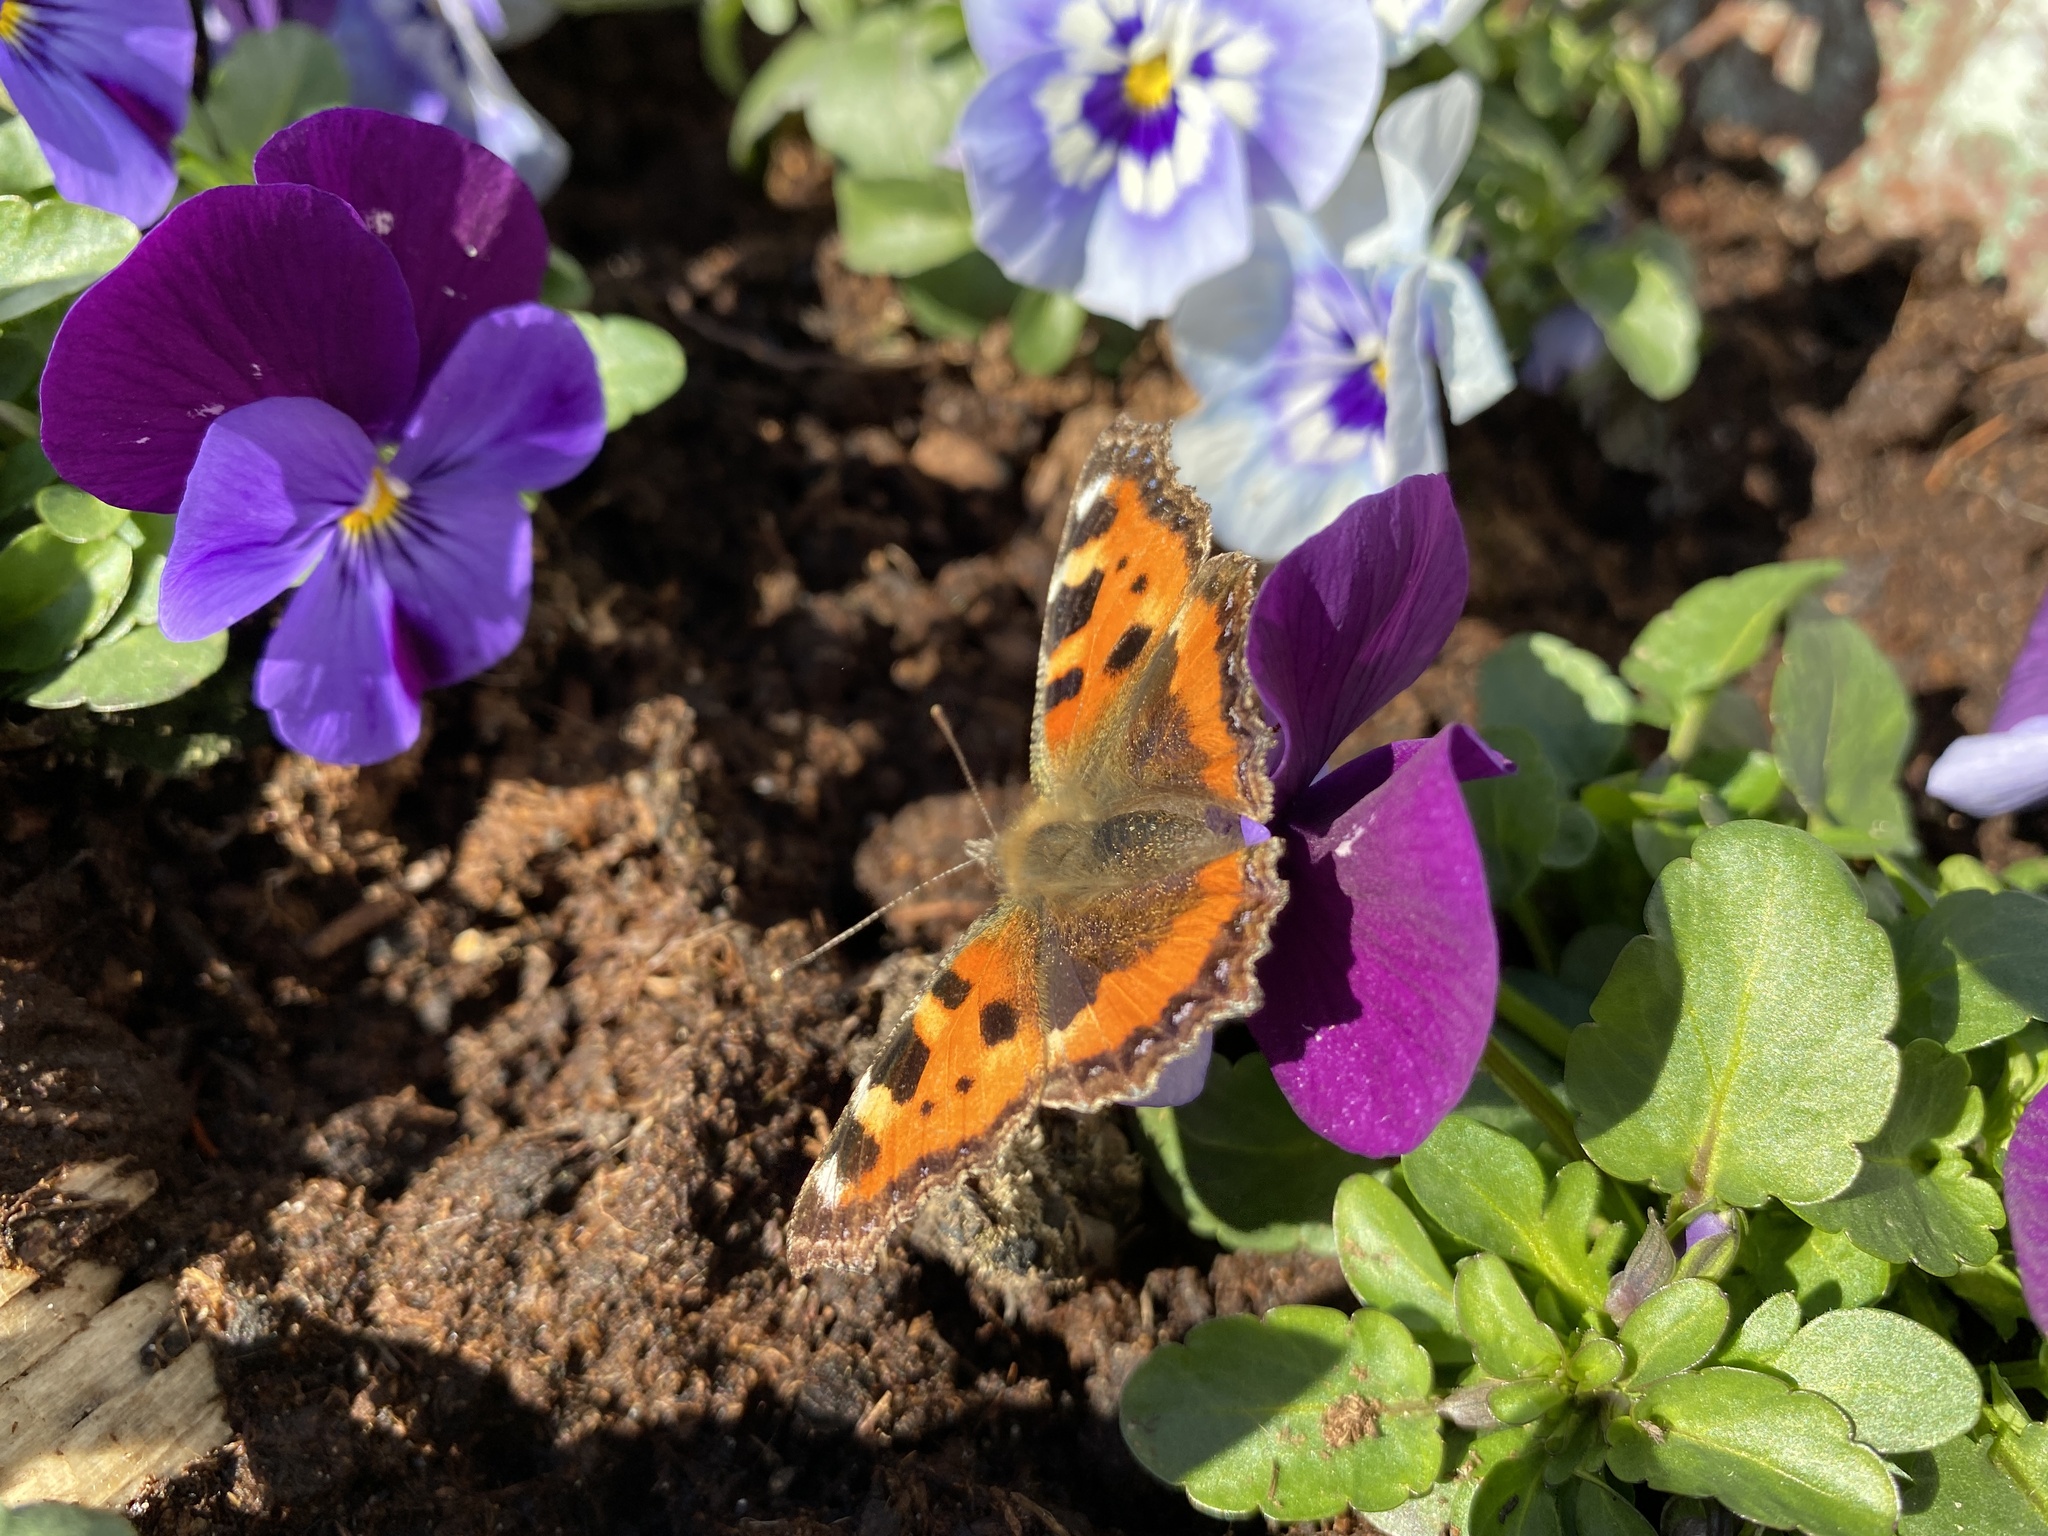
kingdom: Animalia
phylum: Arthropoda
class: Insecta
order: Lepidoptera
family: Nymphalidae
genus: Aglais
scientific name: Aglais urticae
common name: Small tortoiseshell
